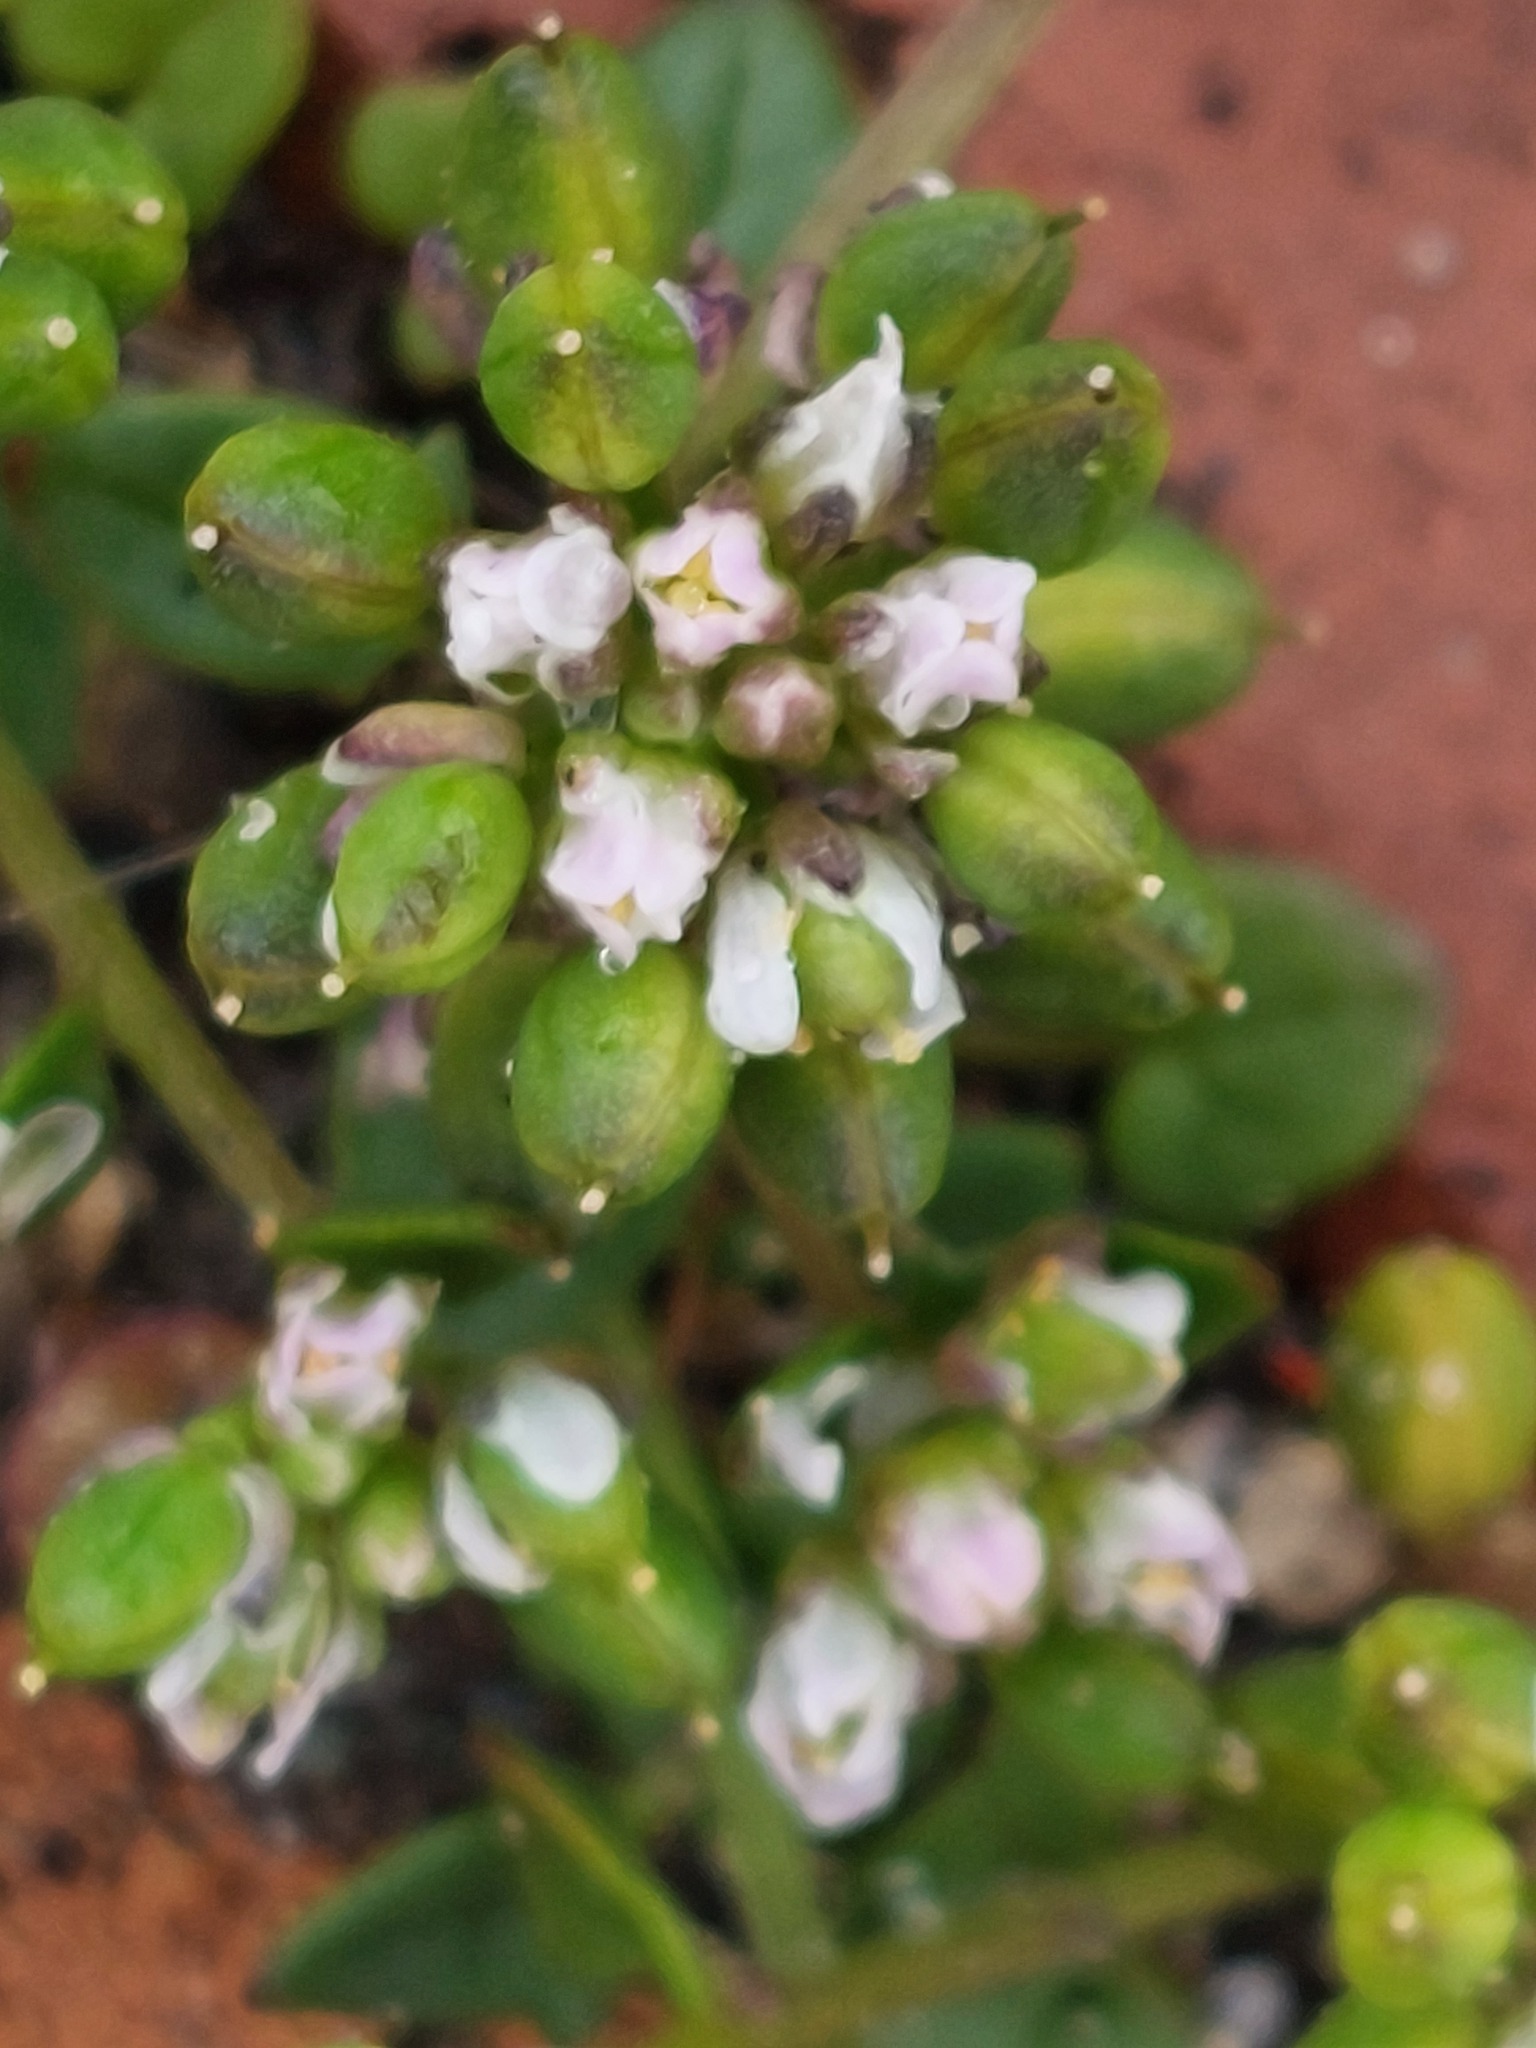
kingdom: Plantae
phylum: Tracheophyta
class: Magnoliopsida
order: Brassicales
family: Brassicaceae
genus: Cochlearia
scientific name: Cochlearia danica
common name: Early scurvygrass
